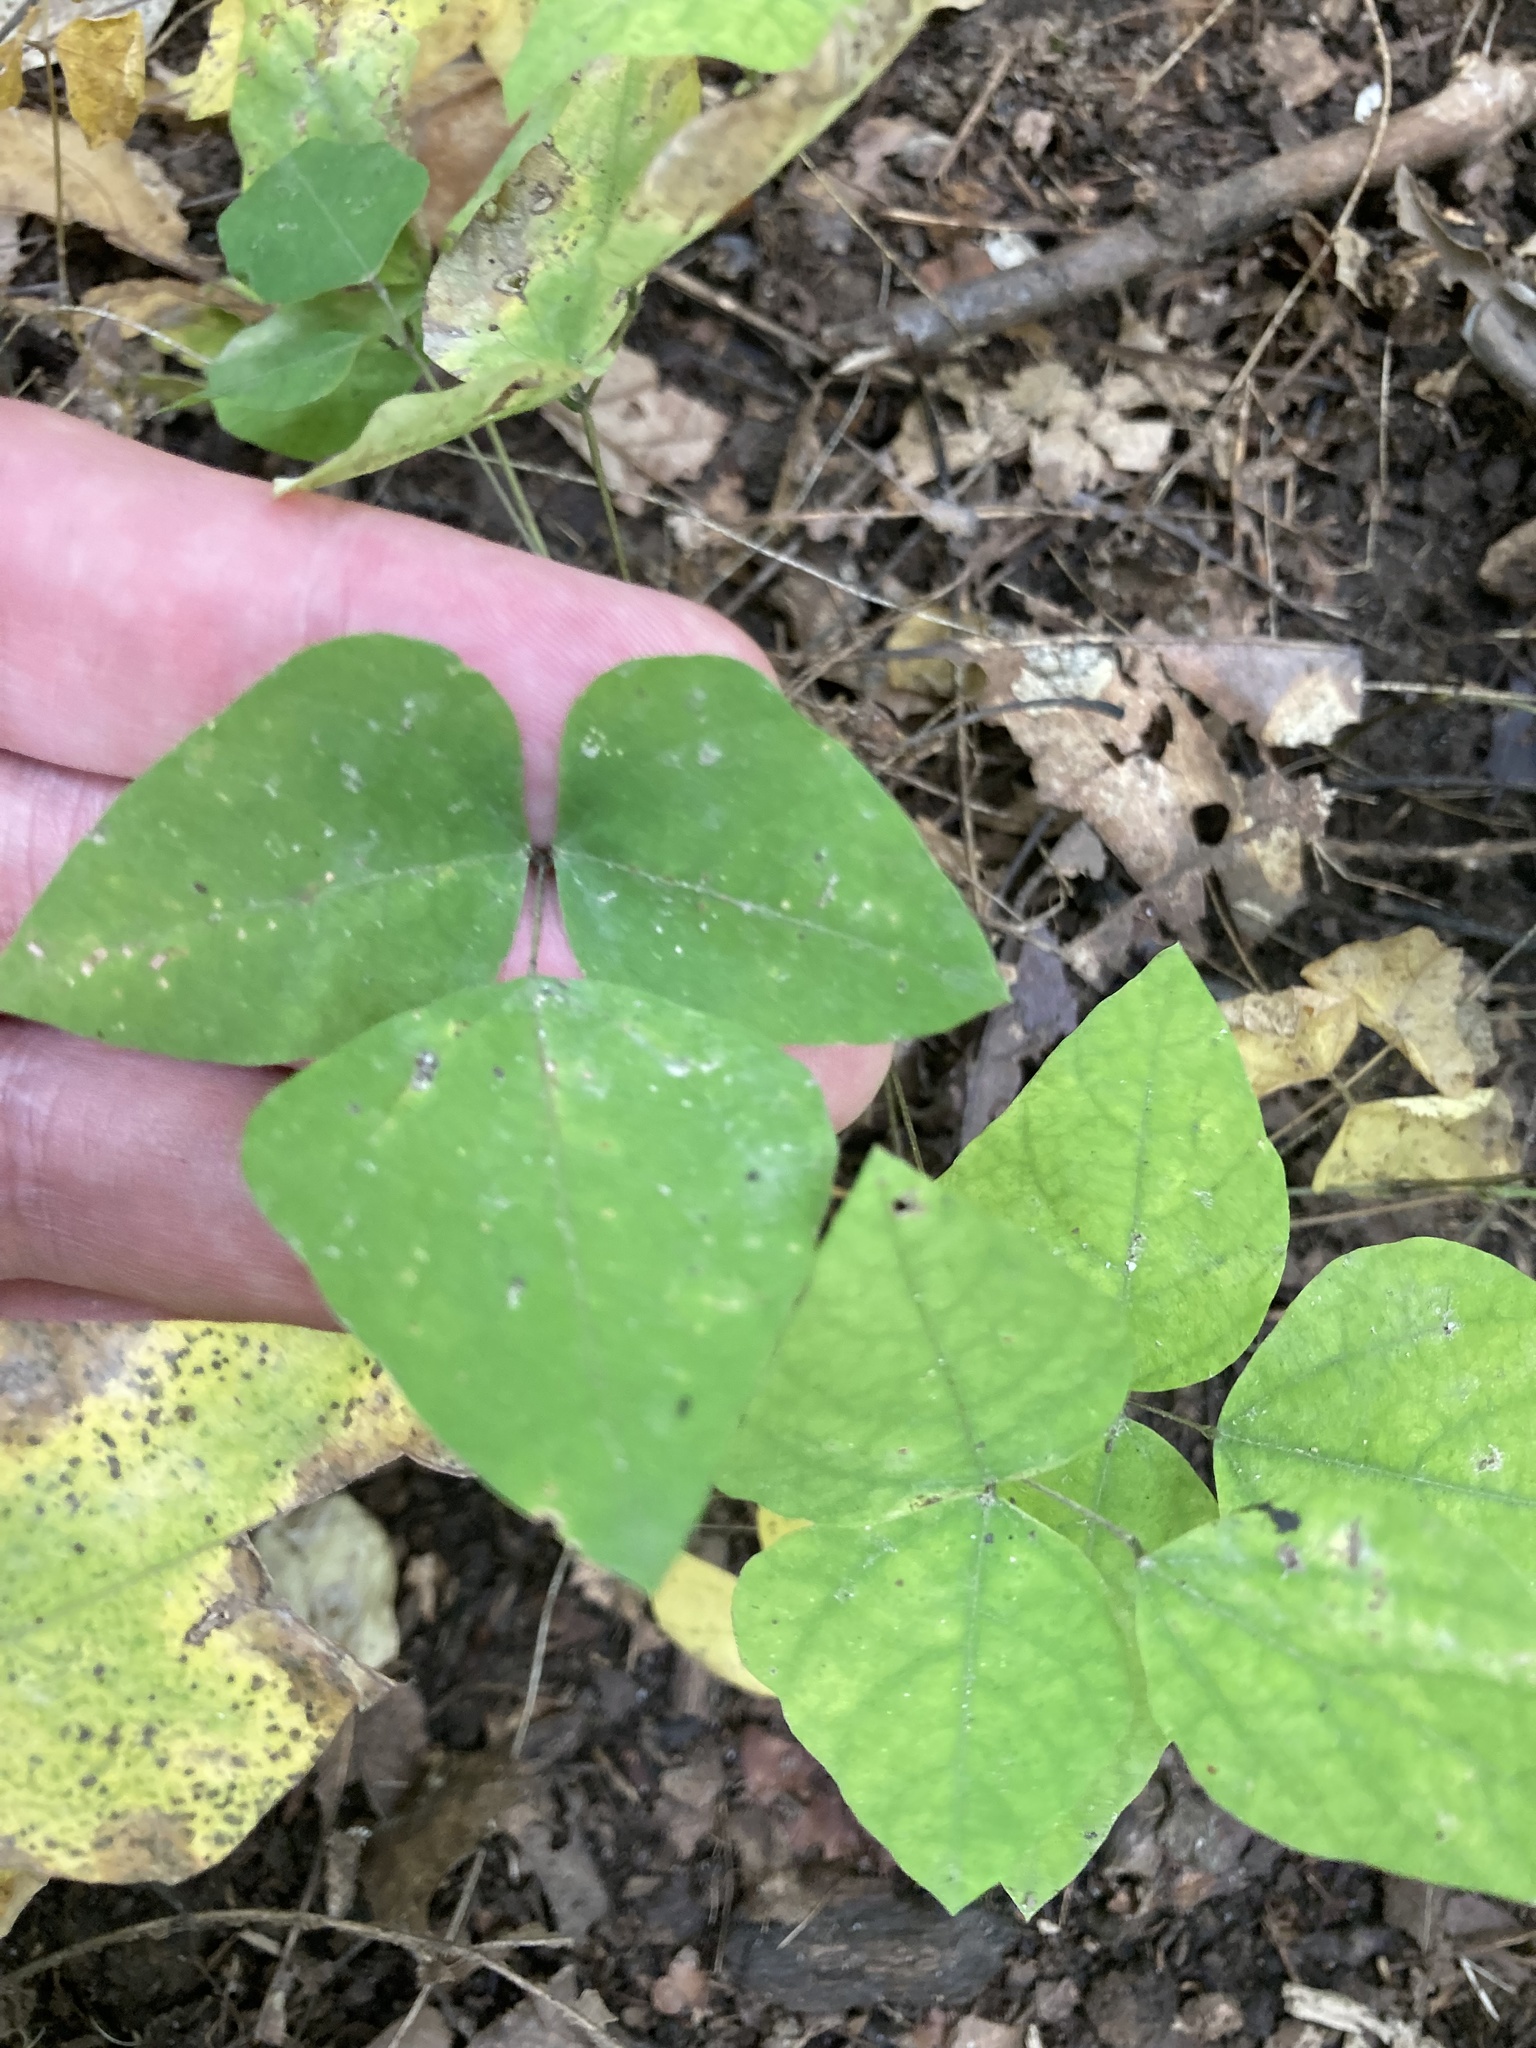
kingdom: Plantae
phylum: Tracheophyta
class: Magnoliopsida
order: Fabales
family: Fabaceae
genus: Amphicarpaea
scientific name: Amphicarpaea bracteata
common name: American hog peanut
